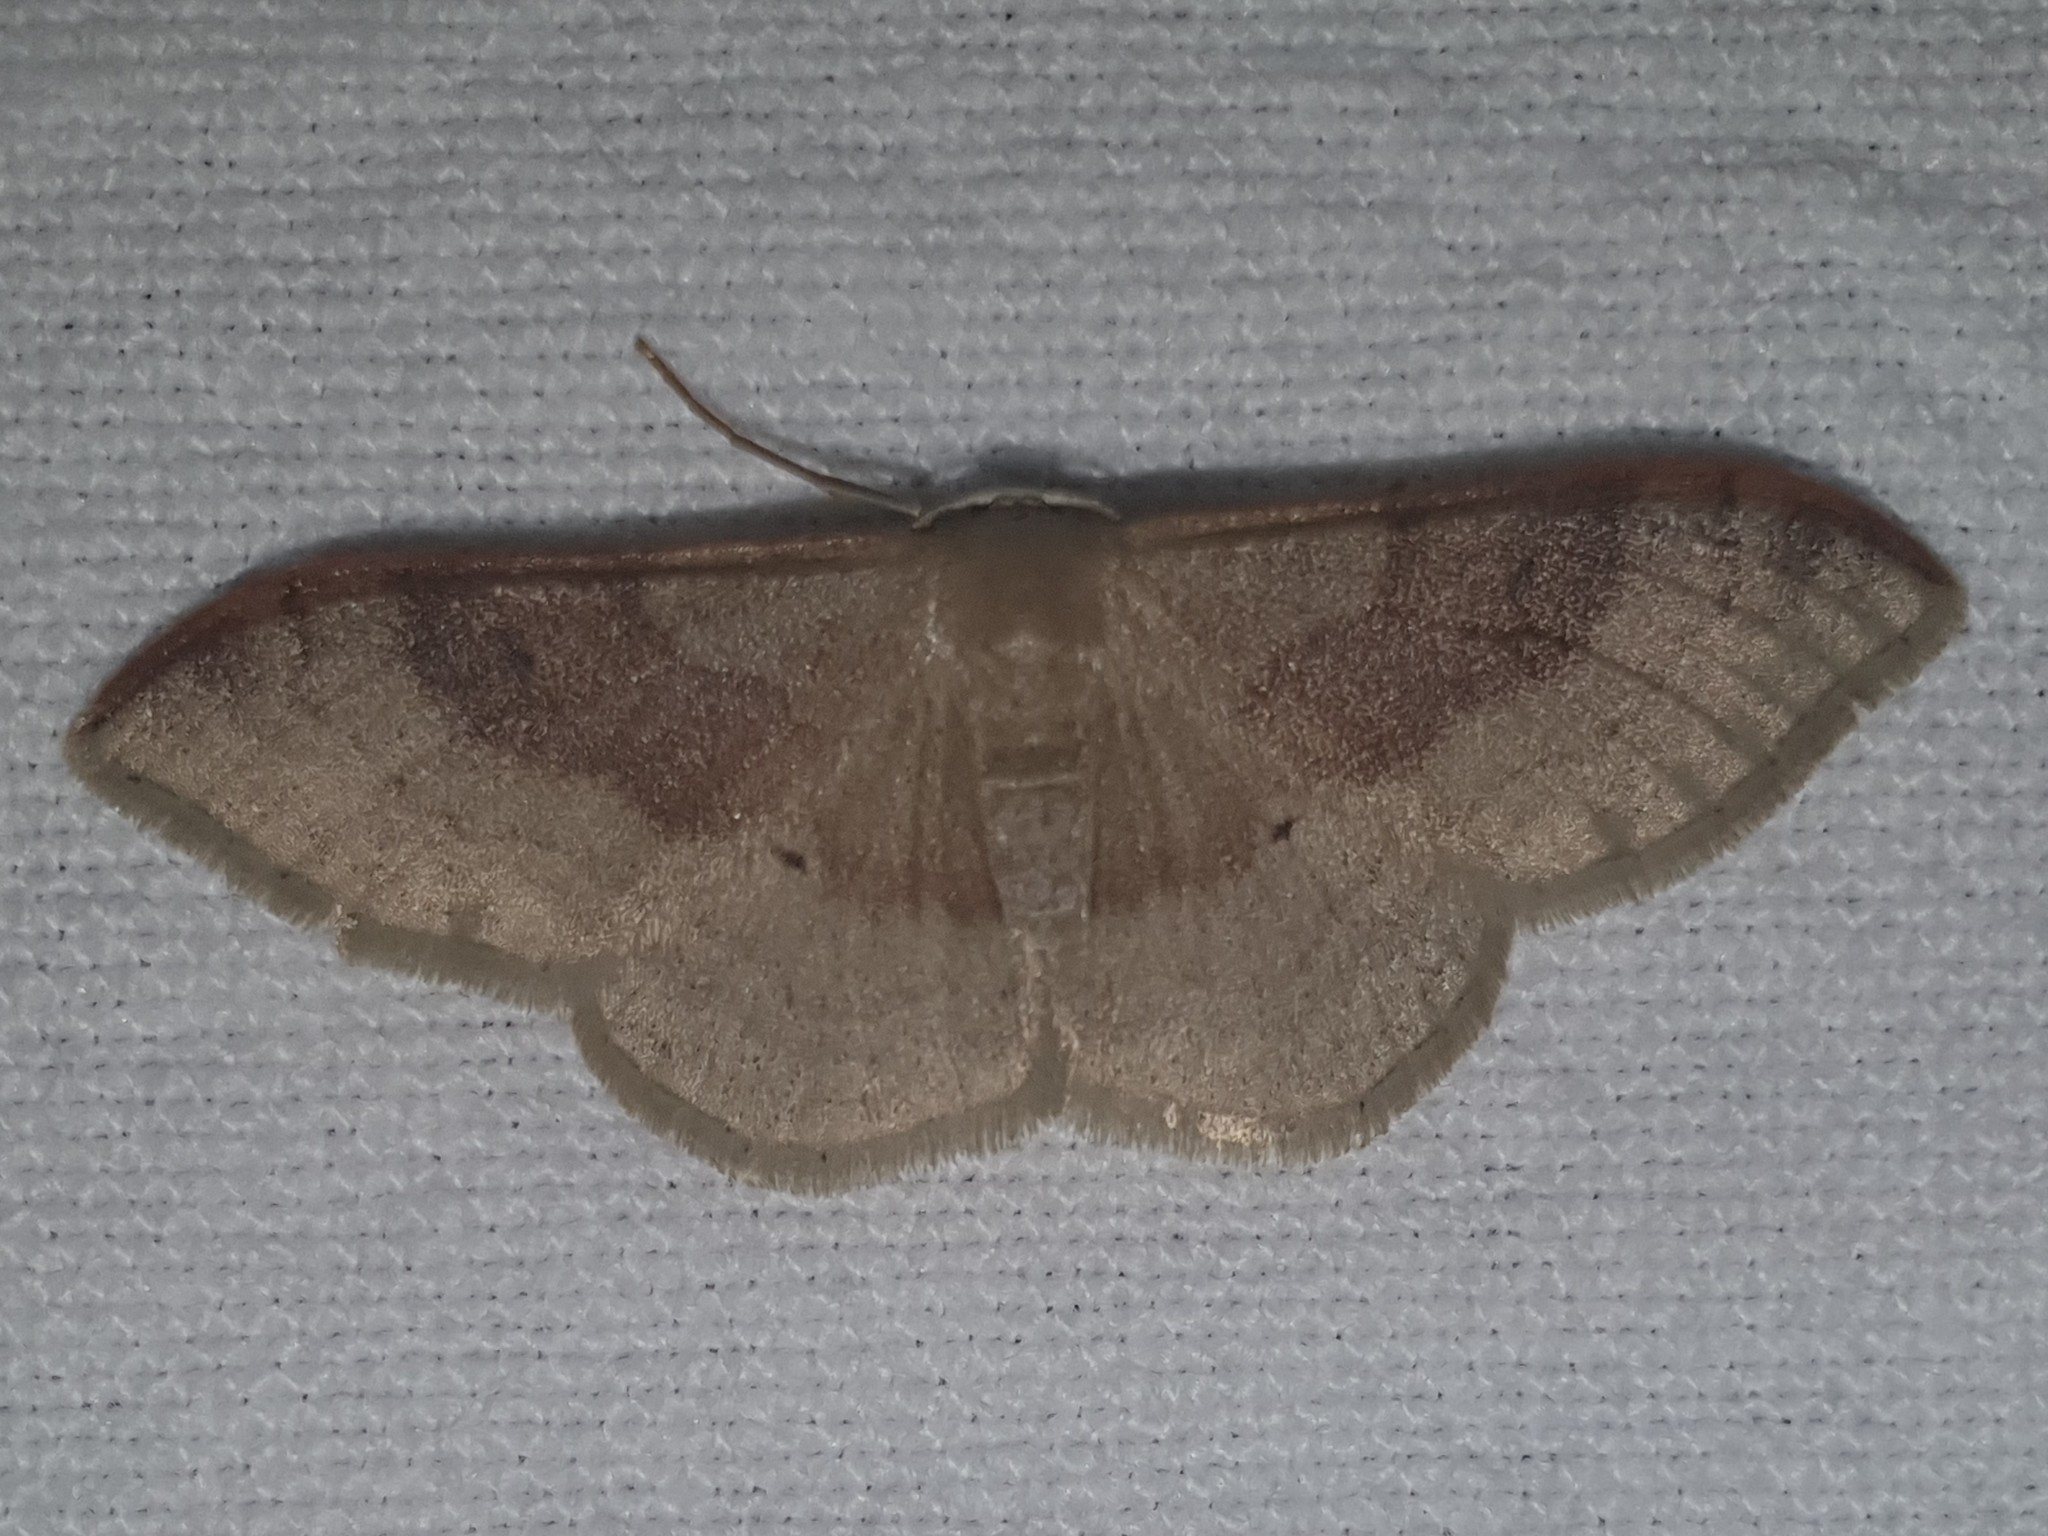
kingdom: Animalia
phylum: Arthropoda
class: Insecta
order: Lepidoptera
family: Geometridae
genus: Idaea
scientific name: Idaea degeneraria
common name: Portland ribbon wave
